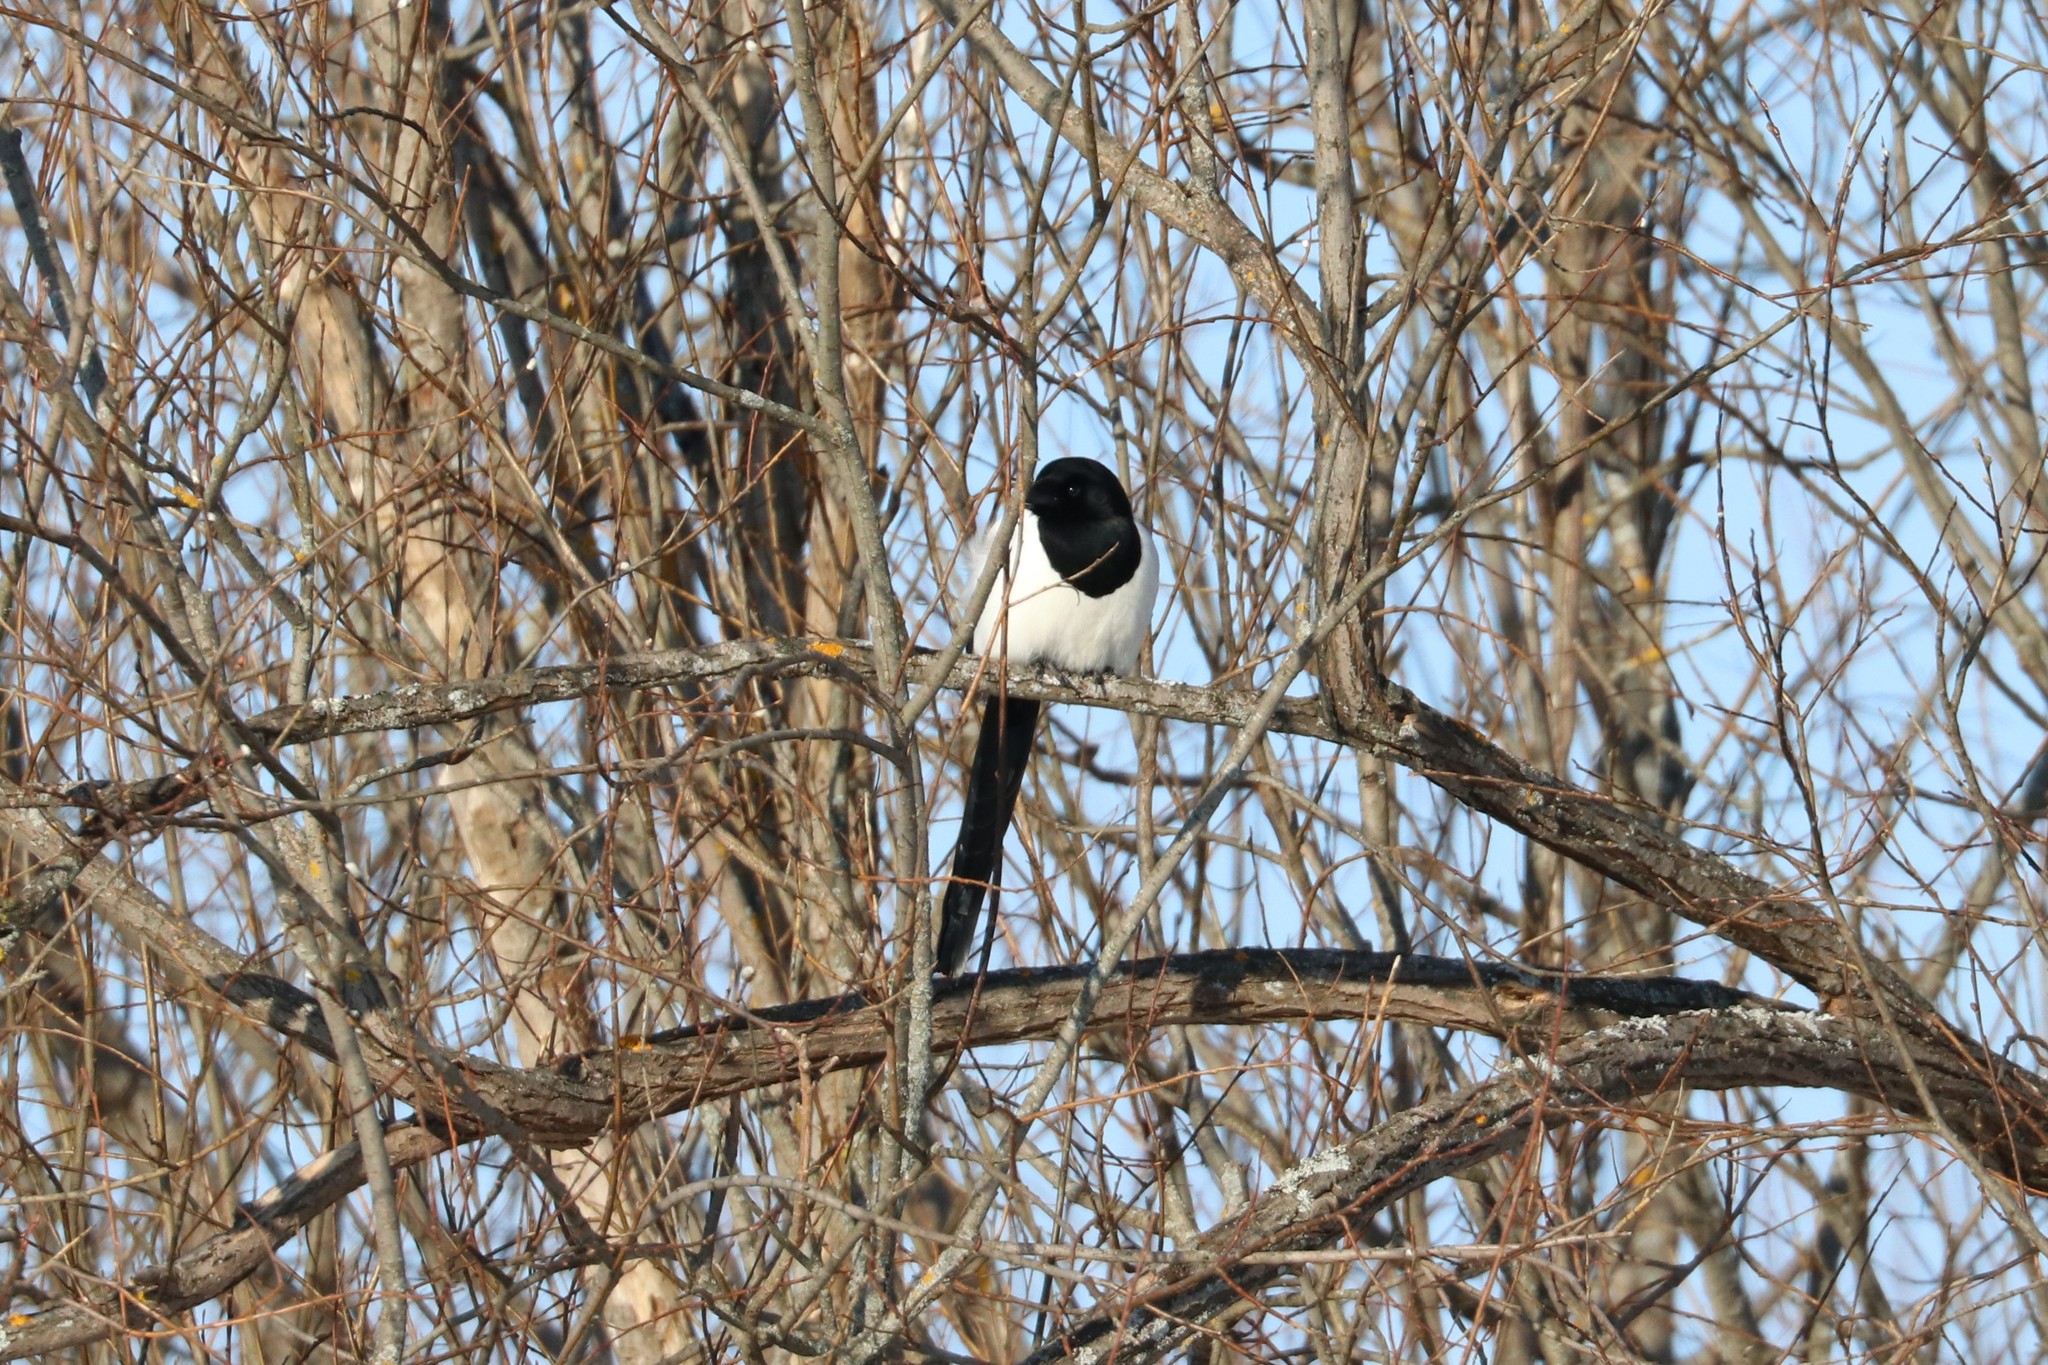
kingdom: Animalia
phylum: Chordata
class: Aves
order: Passeriformes
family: Corvidae
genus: Pica
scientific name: Pica pica
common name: Eurasian magpie
